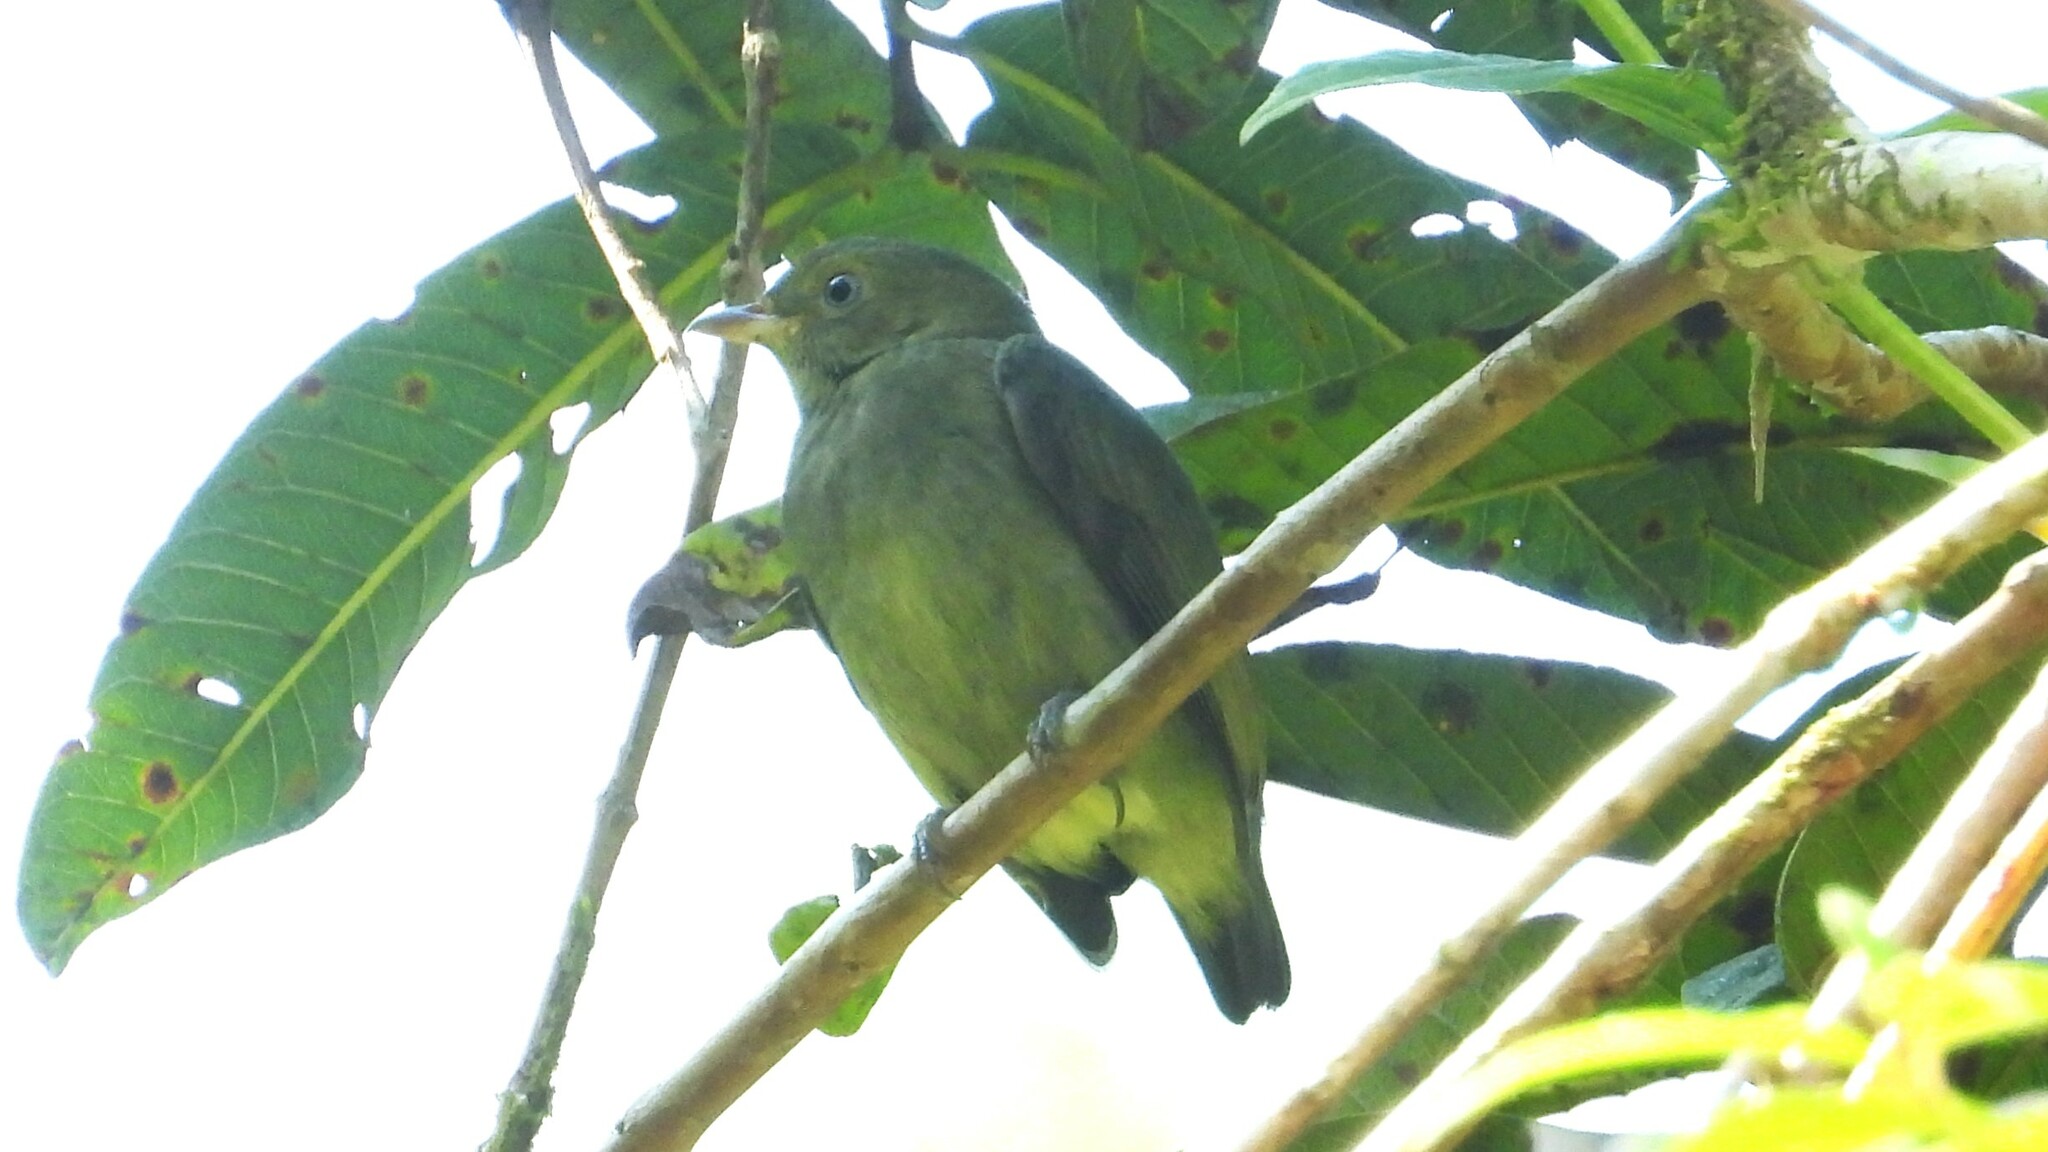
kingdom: Animalia
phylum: Chordata
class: Aves
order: Passeriformes
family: Pipridae
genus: Pipra
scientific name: Pipra mentalis
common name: Red-capped manakin
